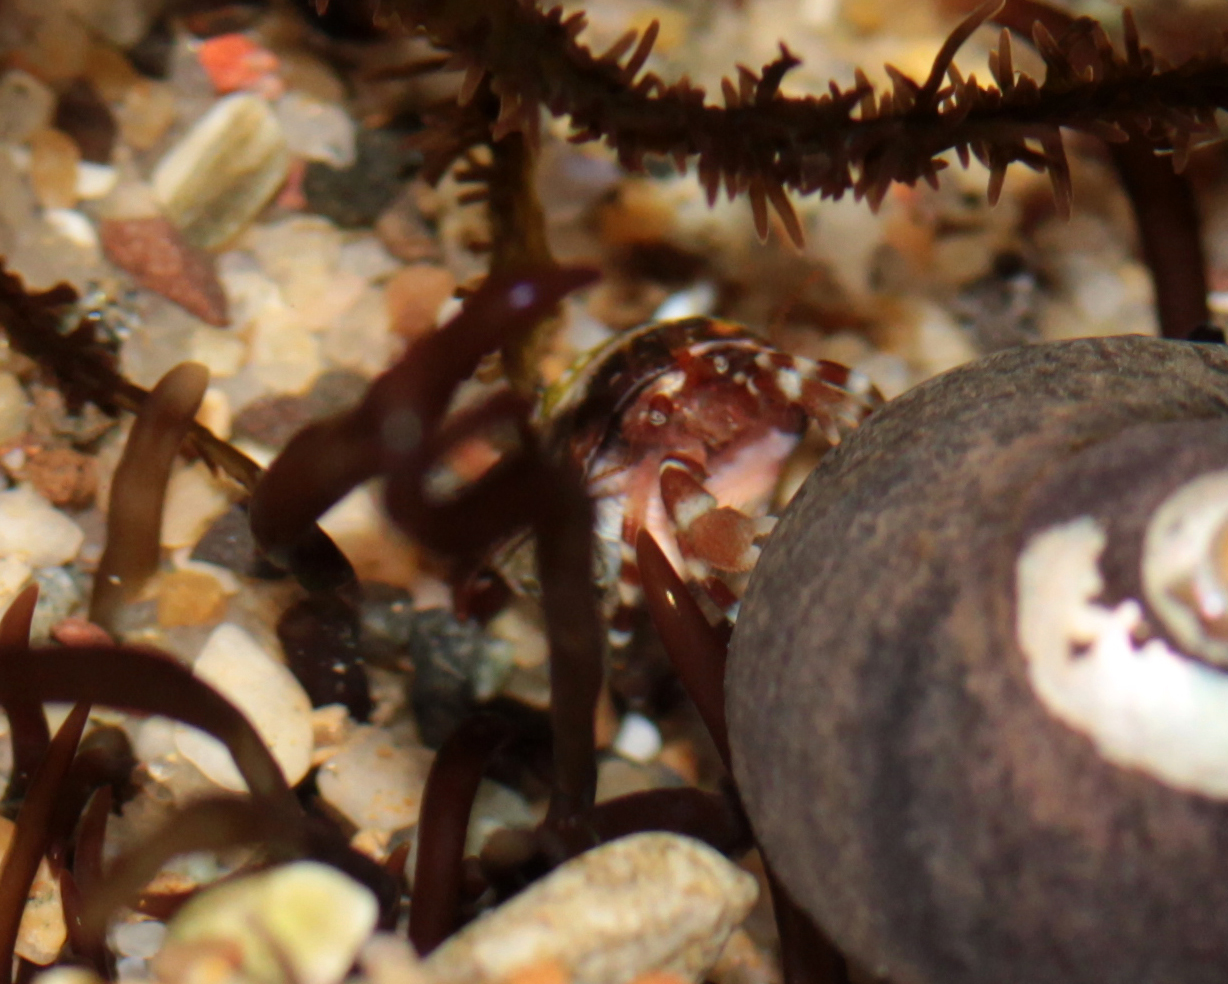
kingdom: Animalia
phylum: Arthropoda
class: Malacostraca
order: Decapoda
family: Paguridae
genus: Pagurus
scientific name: Pagurus samuelis
